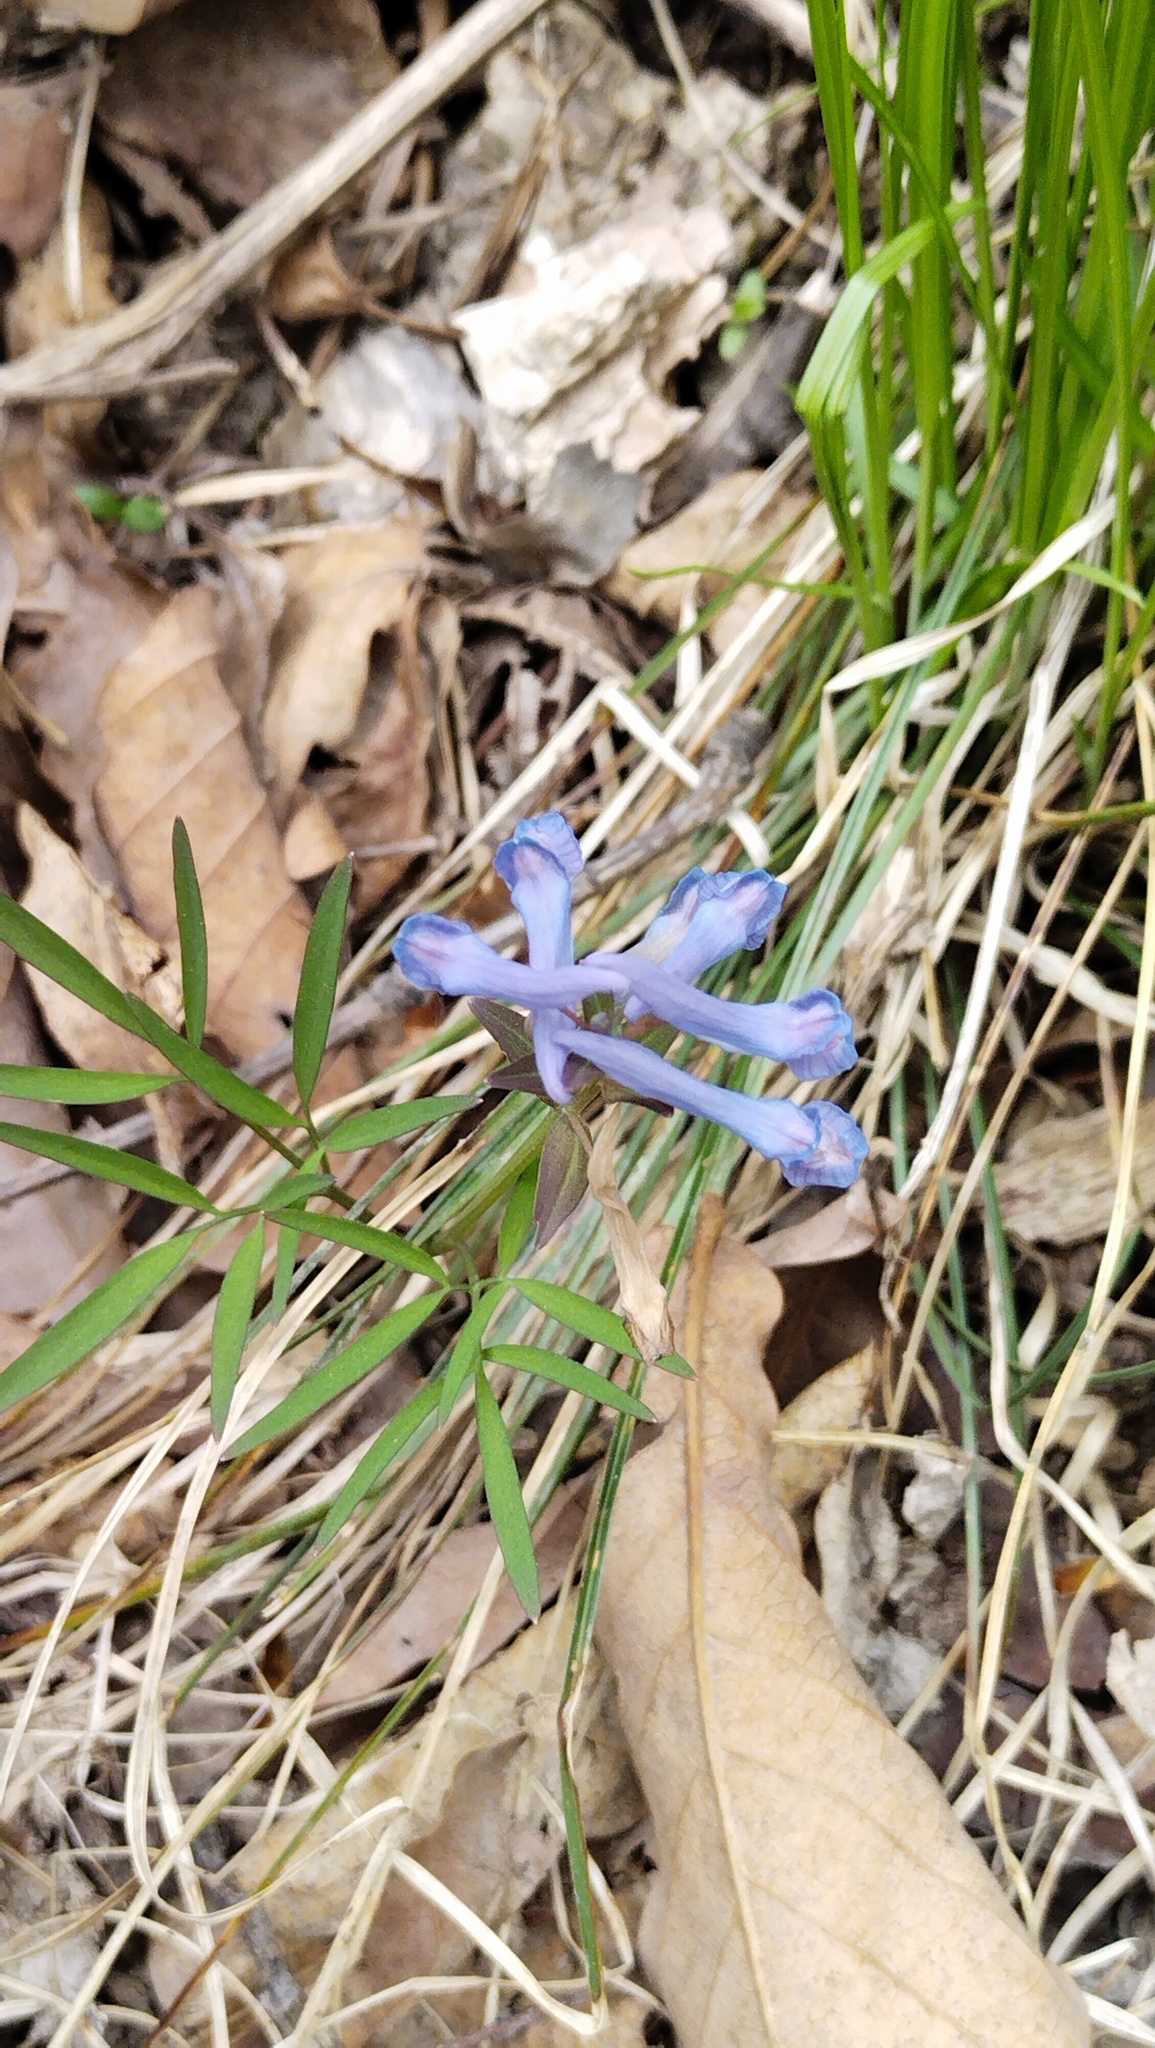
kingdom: Plantae
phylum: Tracheophyta
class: Magnoliopsida
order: Ranunculales
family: Papaveraceae
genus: Corydalis
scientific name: Corydalis ambigua
